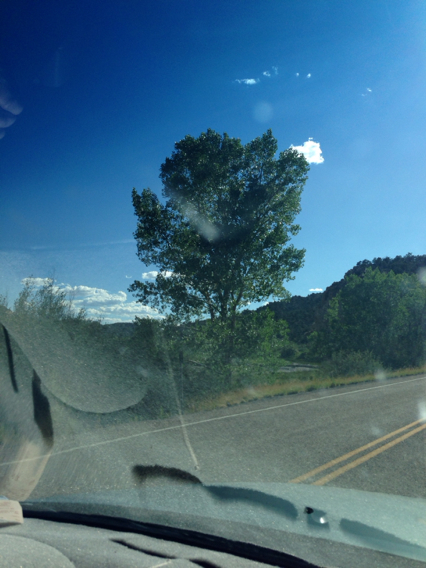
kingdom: Plantae
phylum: Tracheophyta
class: Magnoliopsida
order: Malpighiales
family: Salicaceae
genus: Populus
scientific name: Populus fremontii
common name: Fremont's cottonwood
